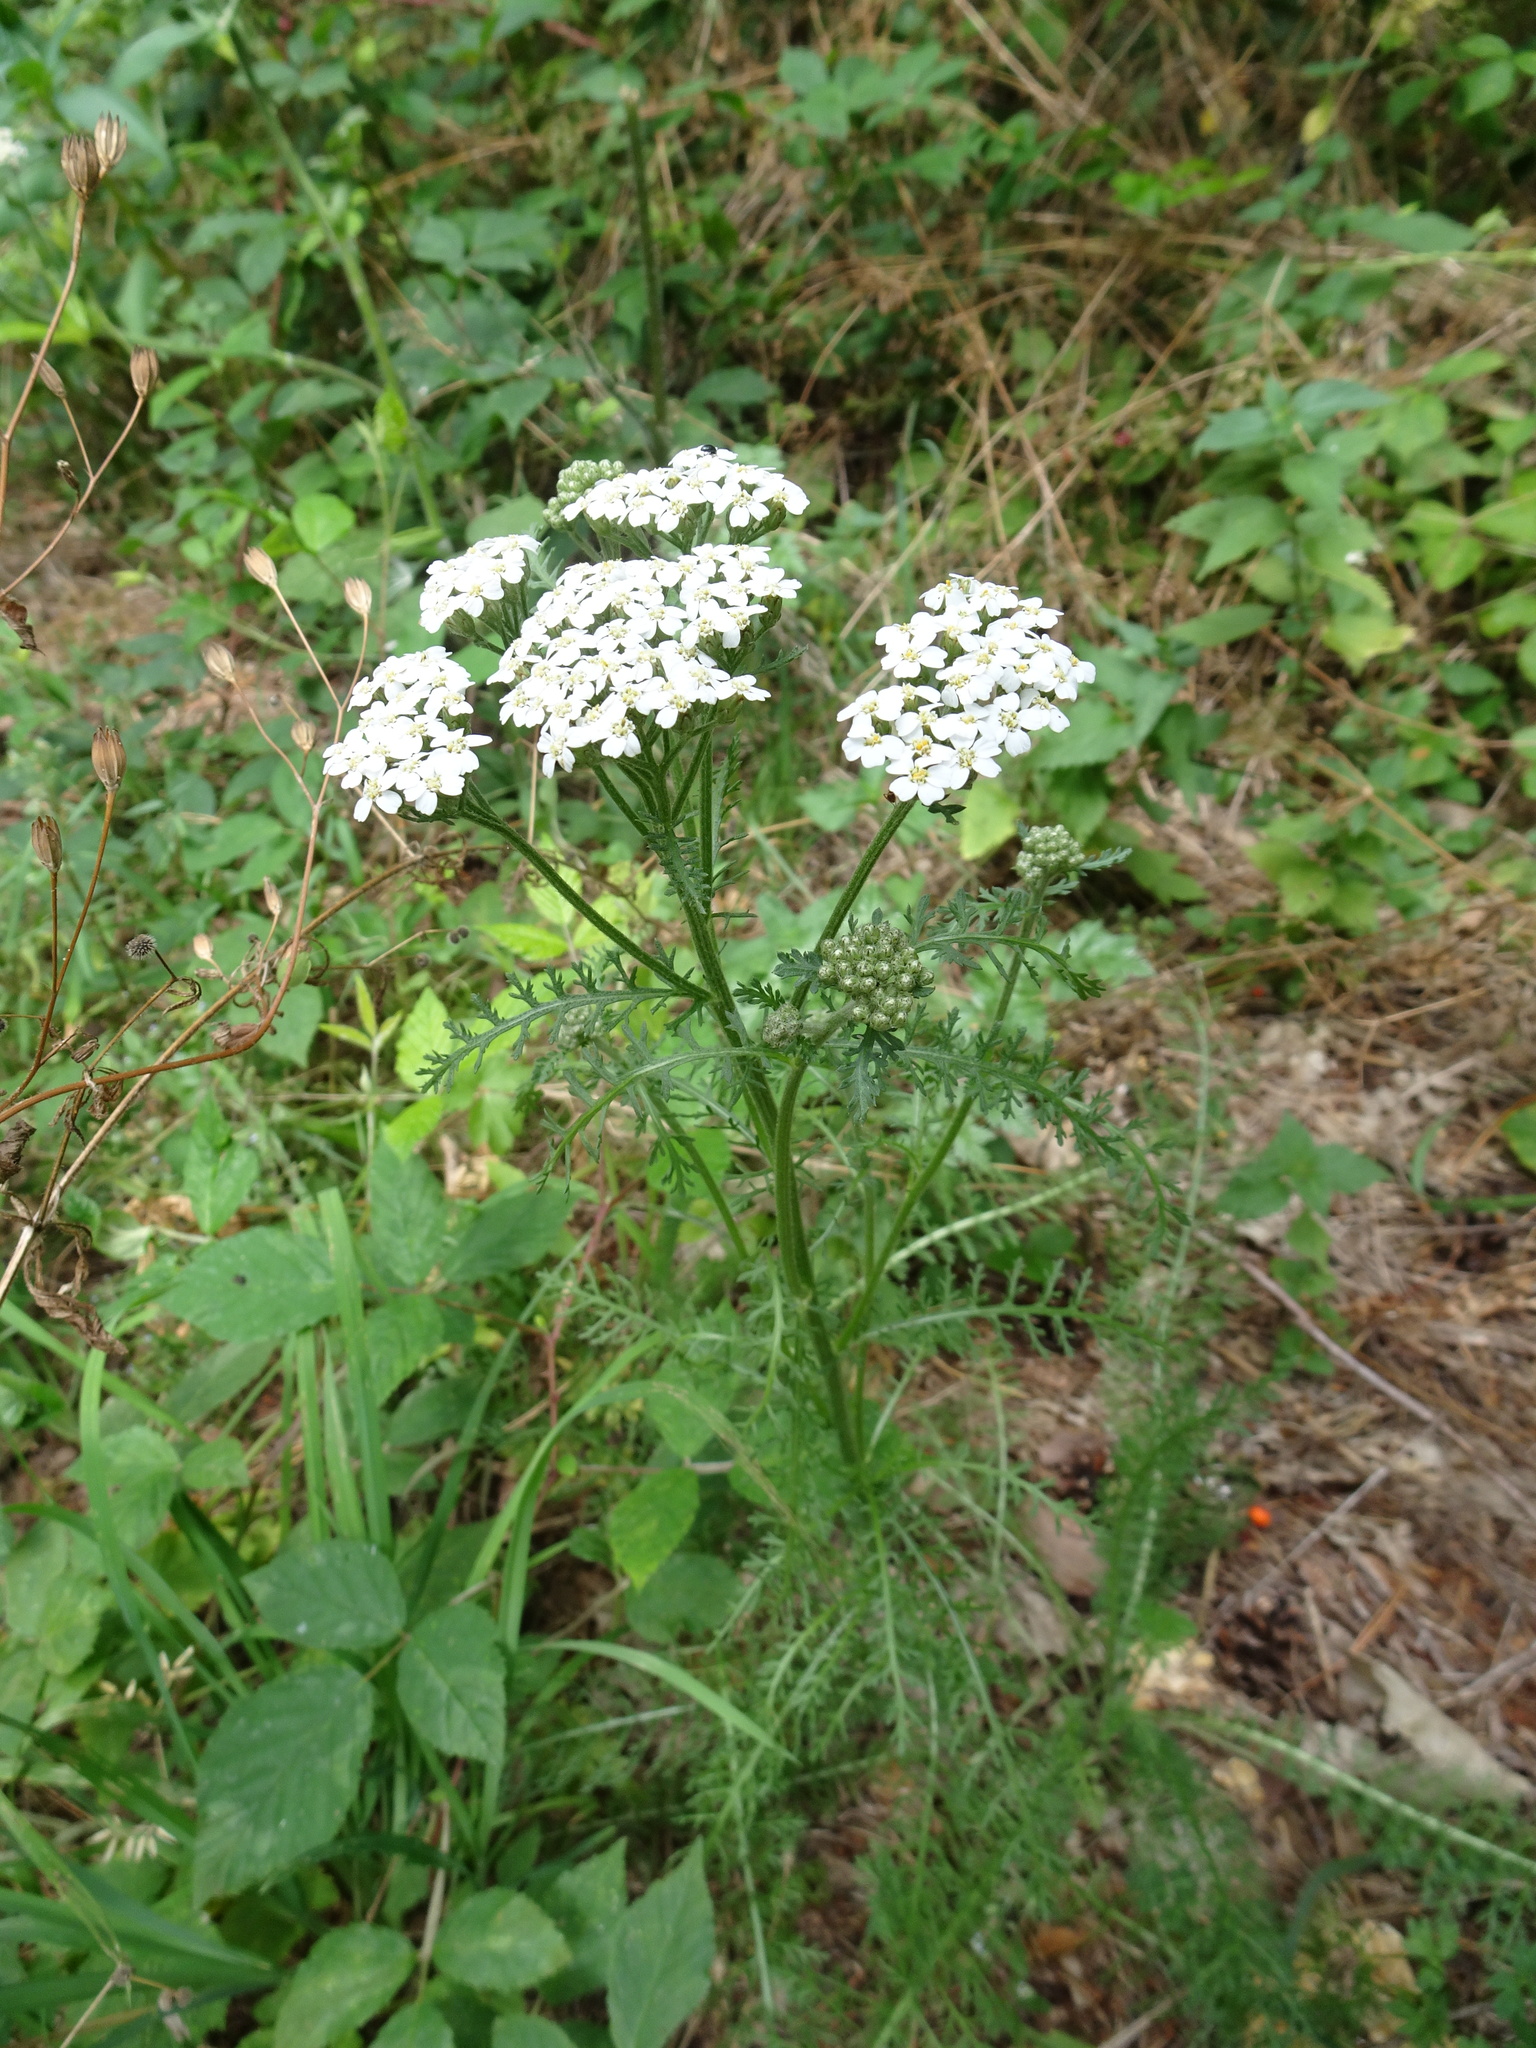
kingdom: Plantae
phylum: Tracheophyta
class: Magnoliopsida
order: Asterales
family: Asteraceae
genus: Achillea
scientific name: Achillea millefolium
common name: Yarrow
